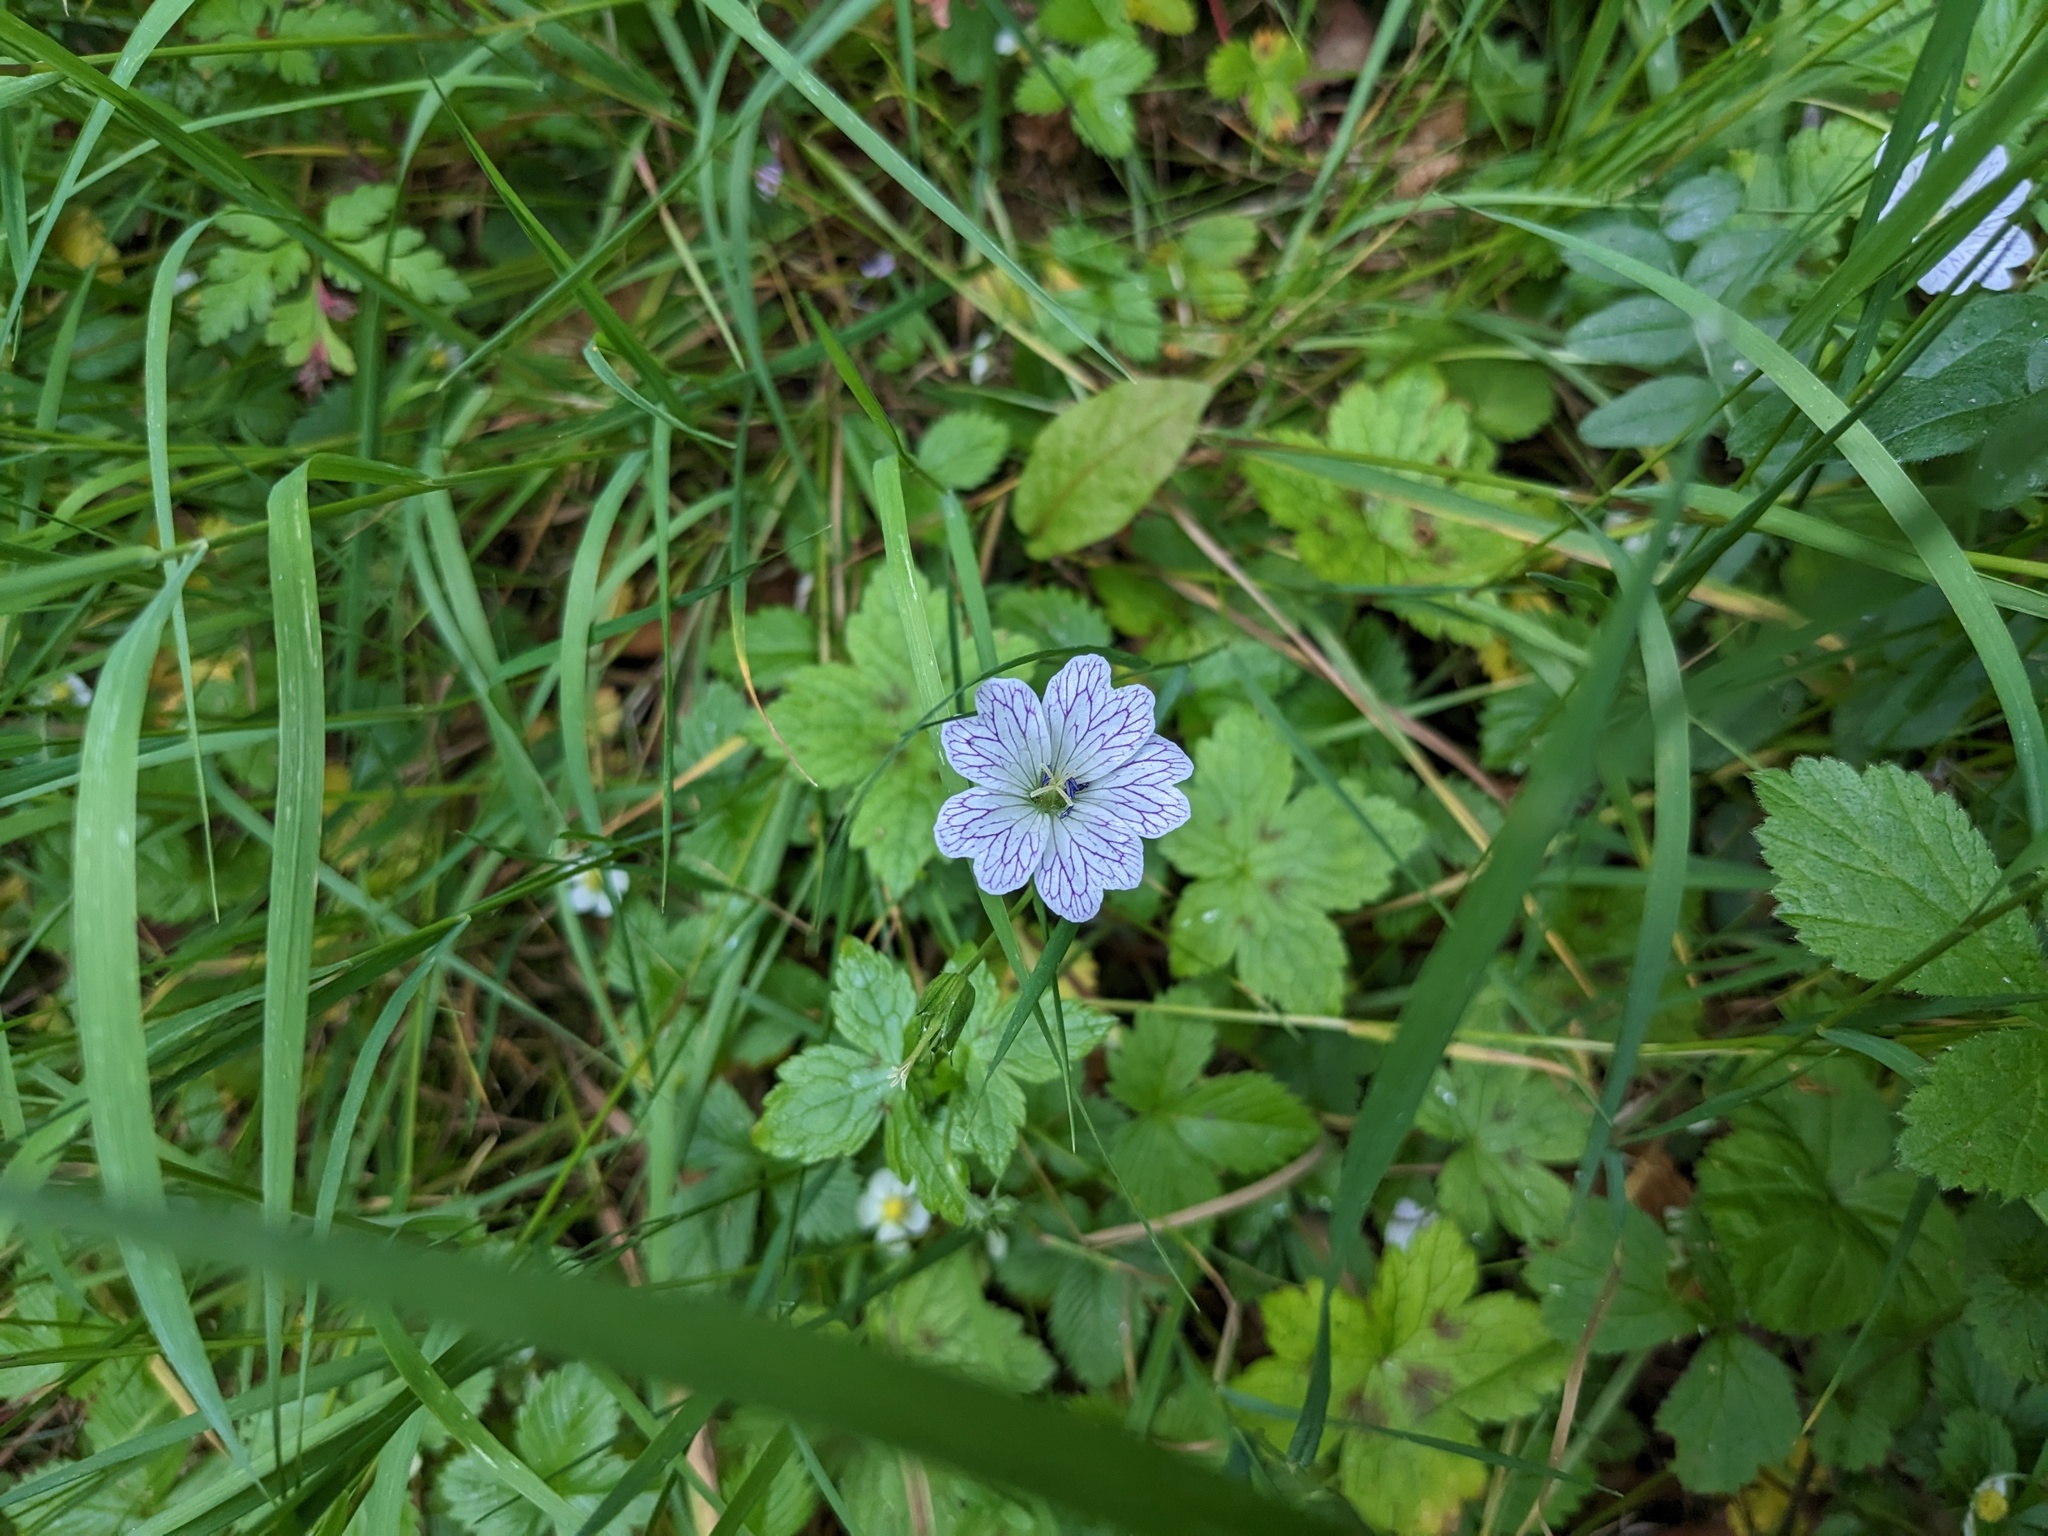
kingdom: Plantae
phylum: Tracheophyta
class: Magnoliopsida
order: Geraniales
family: Geraniaceae
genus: Geranium
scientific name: Geranium versicolor
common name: Pencilled crane's-bill
